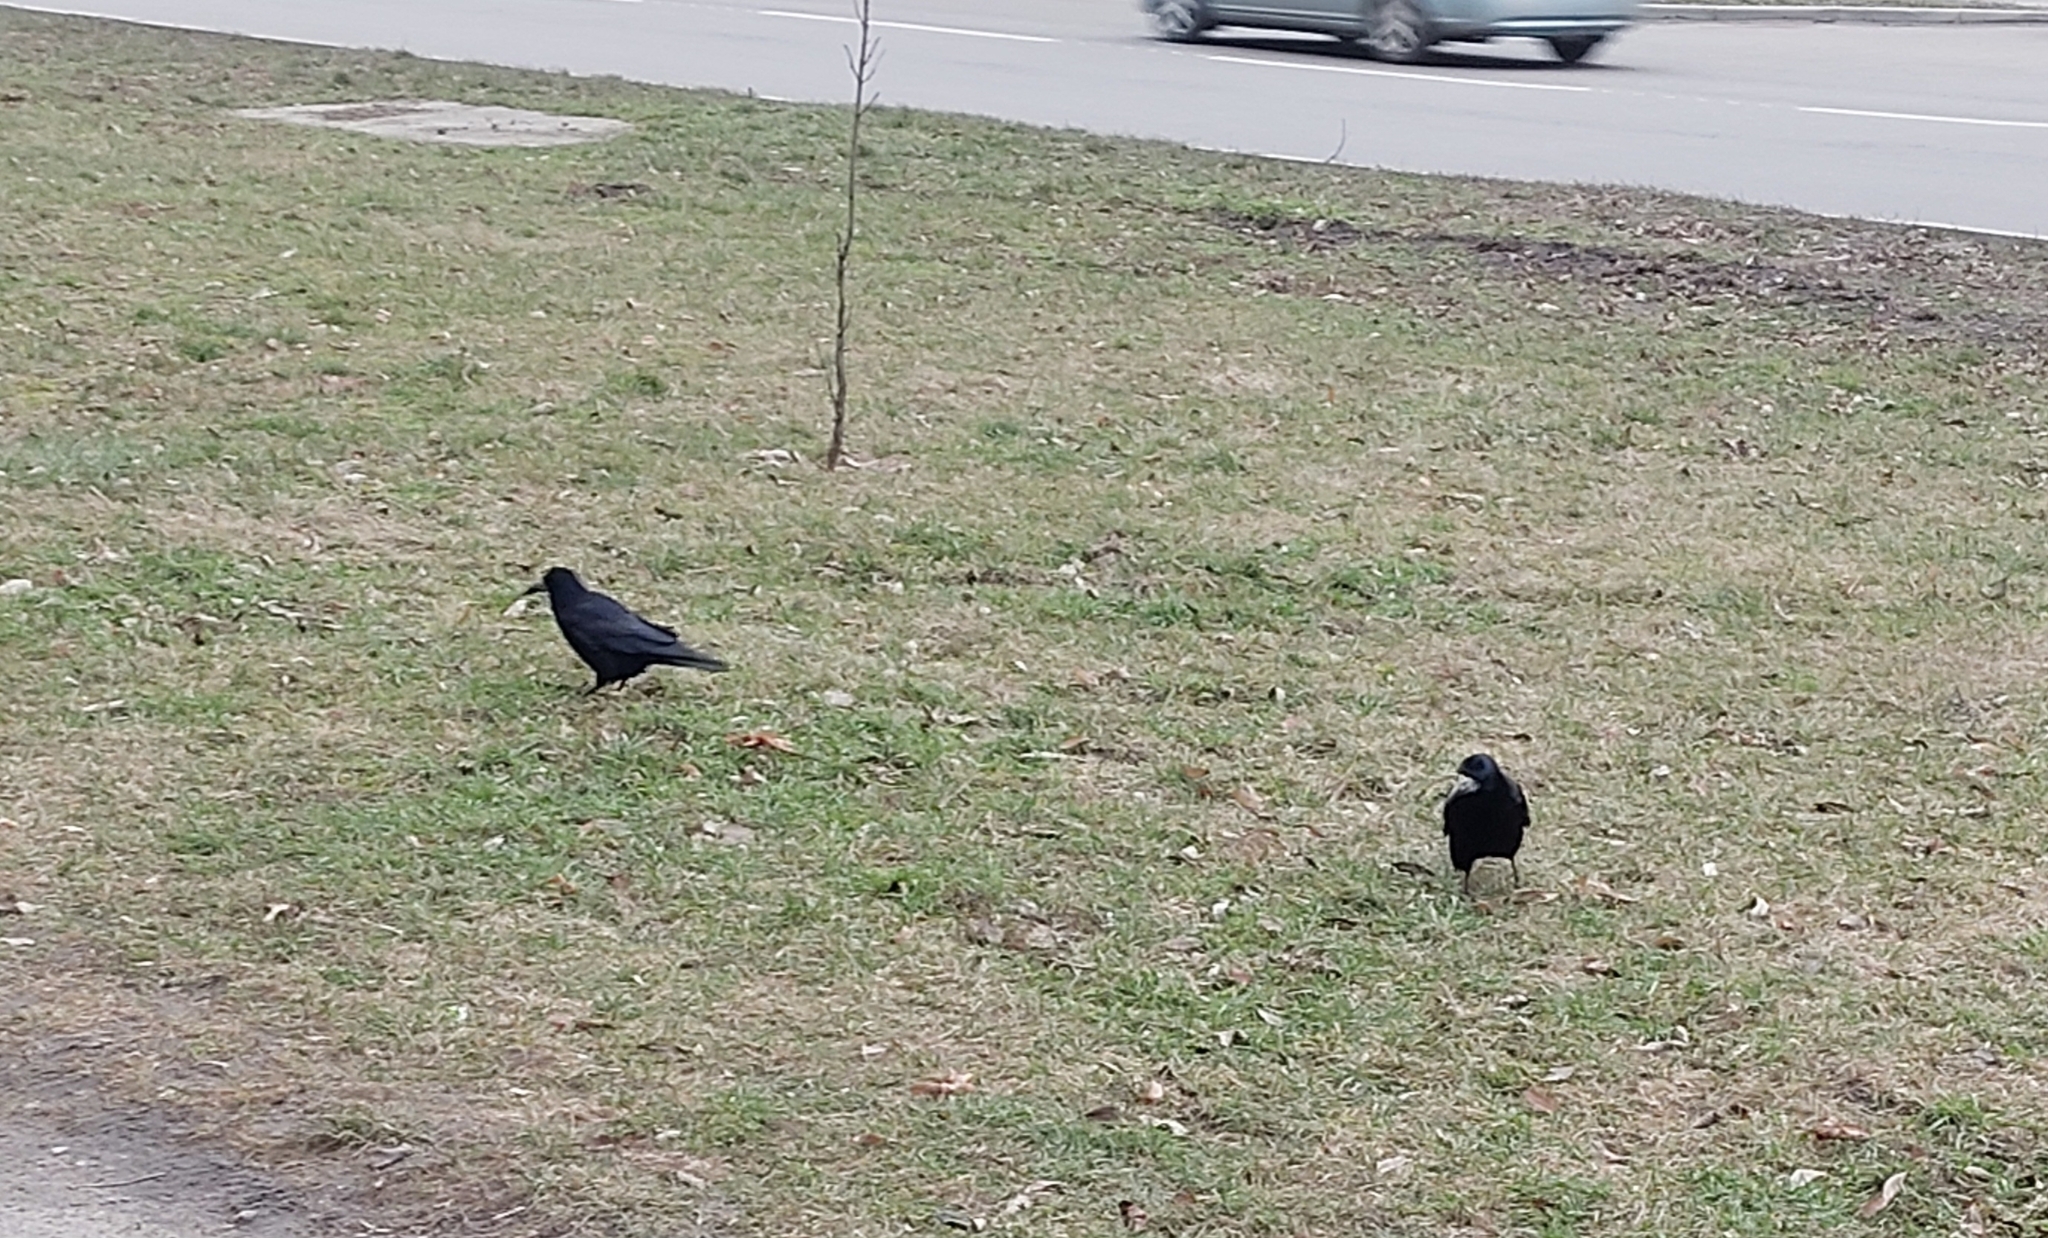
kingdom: Animalia
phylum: Chordata
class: Aves
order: Passeriformes
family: Corvidae
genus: Corvus
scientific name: Corvus frugilegus
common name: Rook
